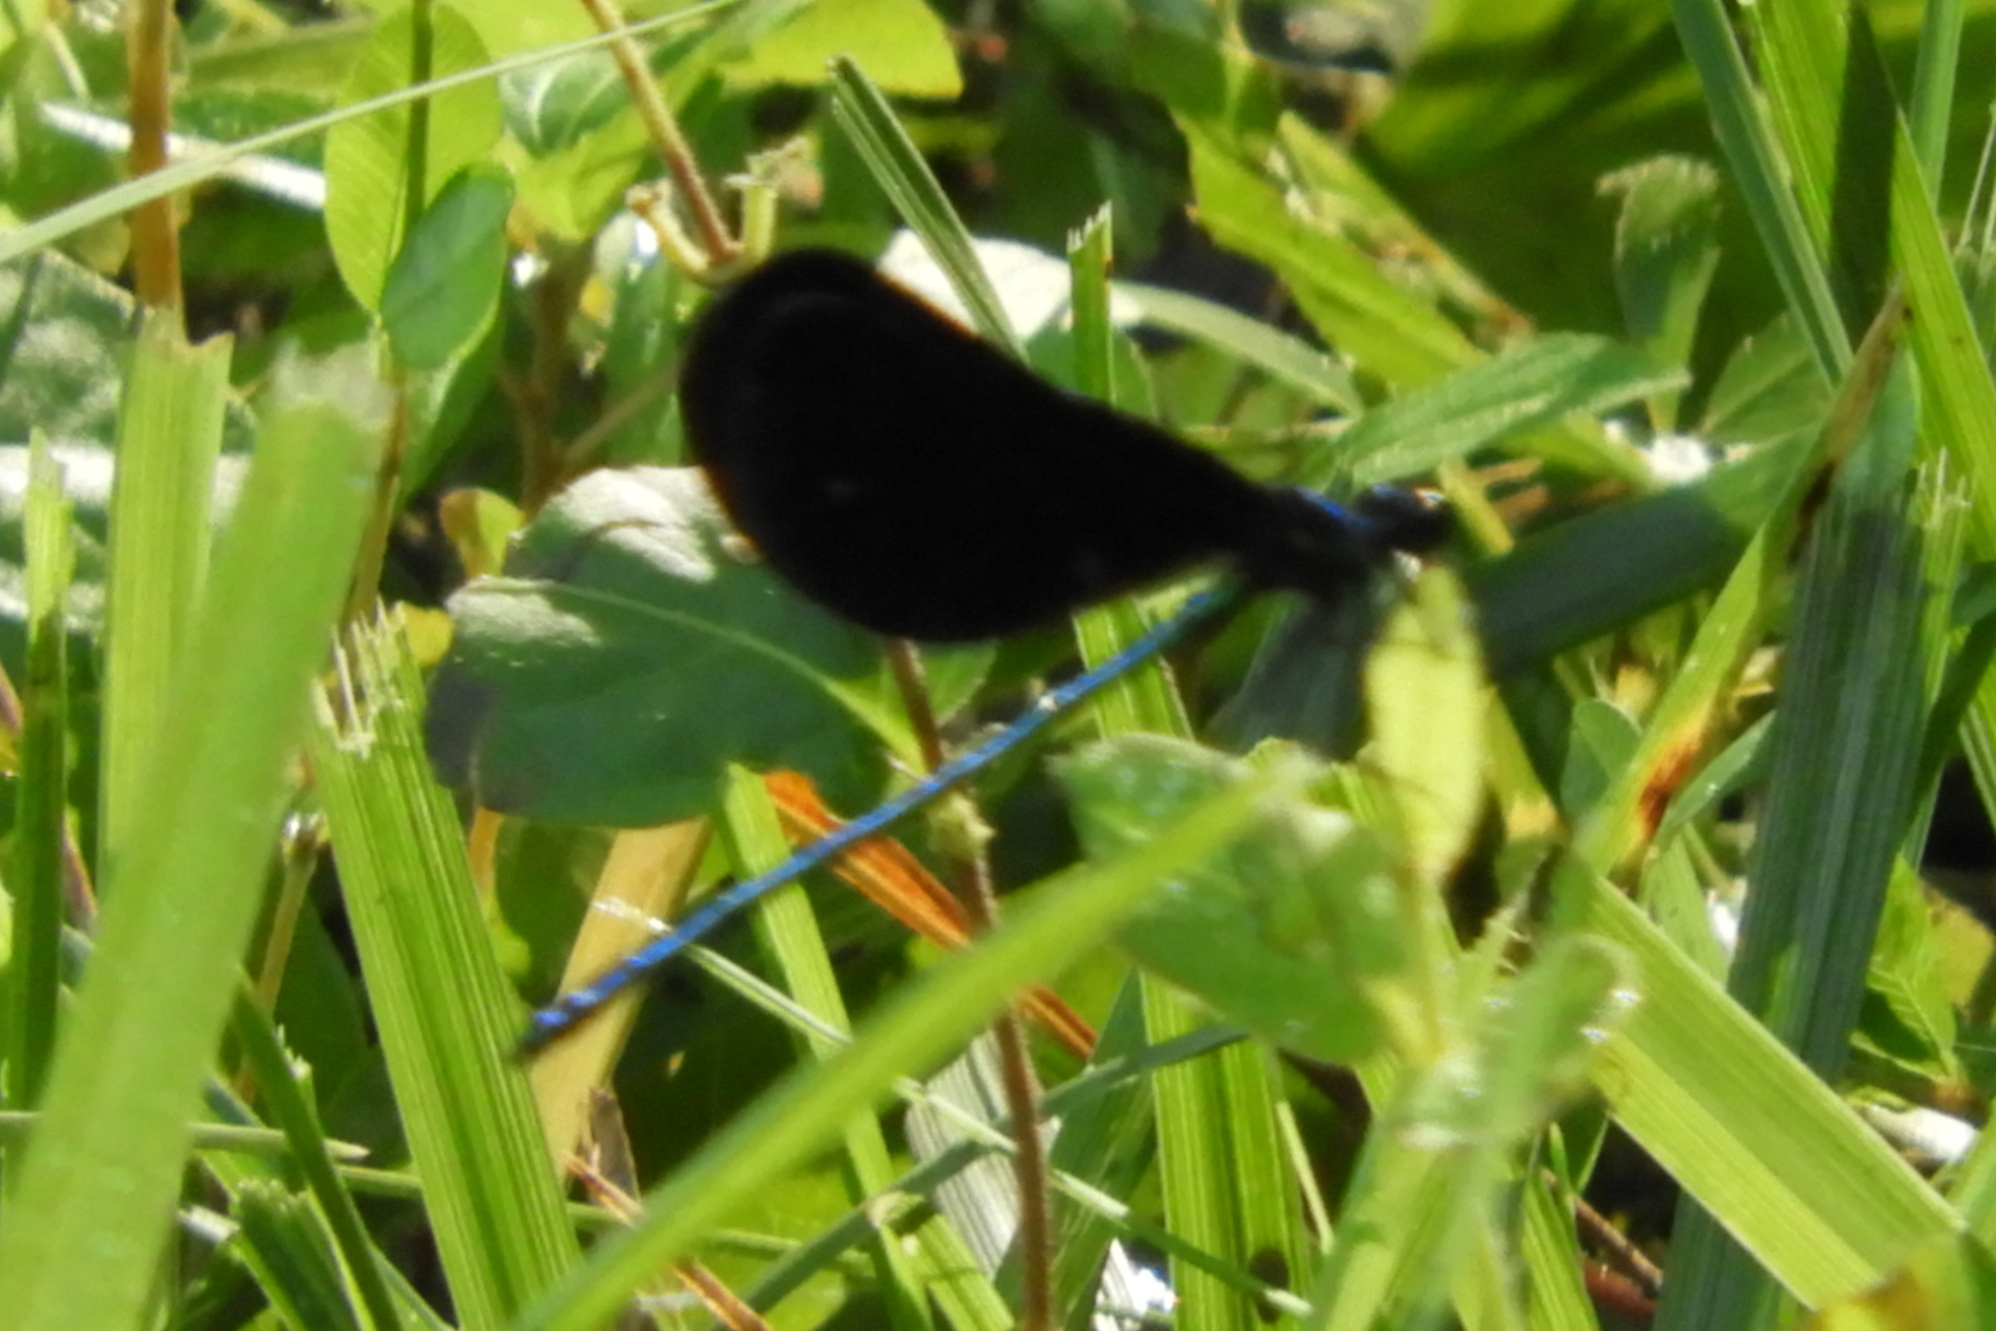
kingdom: Animalia
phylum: Arthropoda
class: Insecta
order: Odonata
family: Calopterygidae
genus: Calopteryx
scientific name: Calopteryx maculata
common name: Ebony jewelwing
